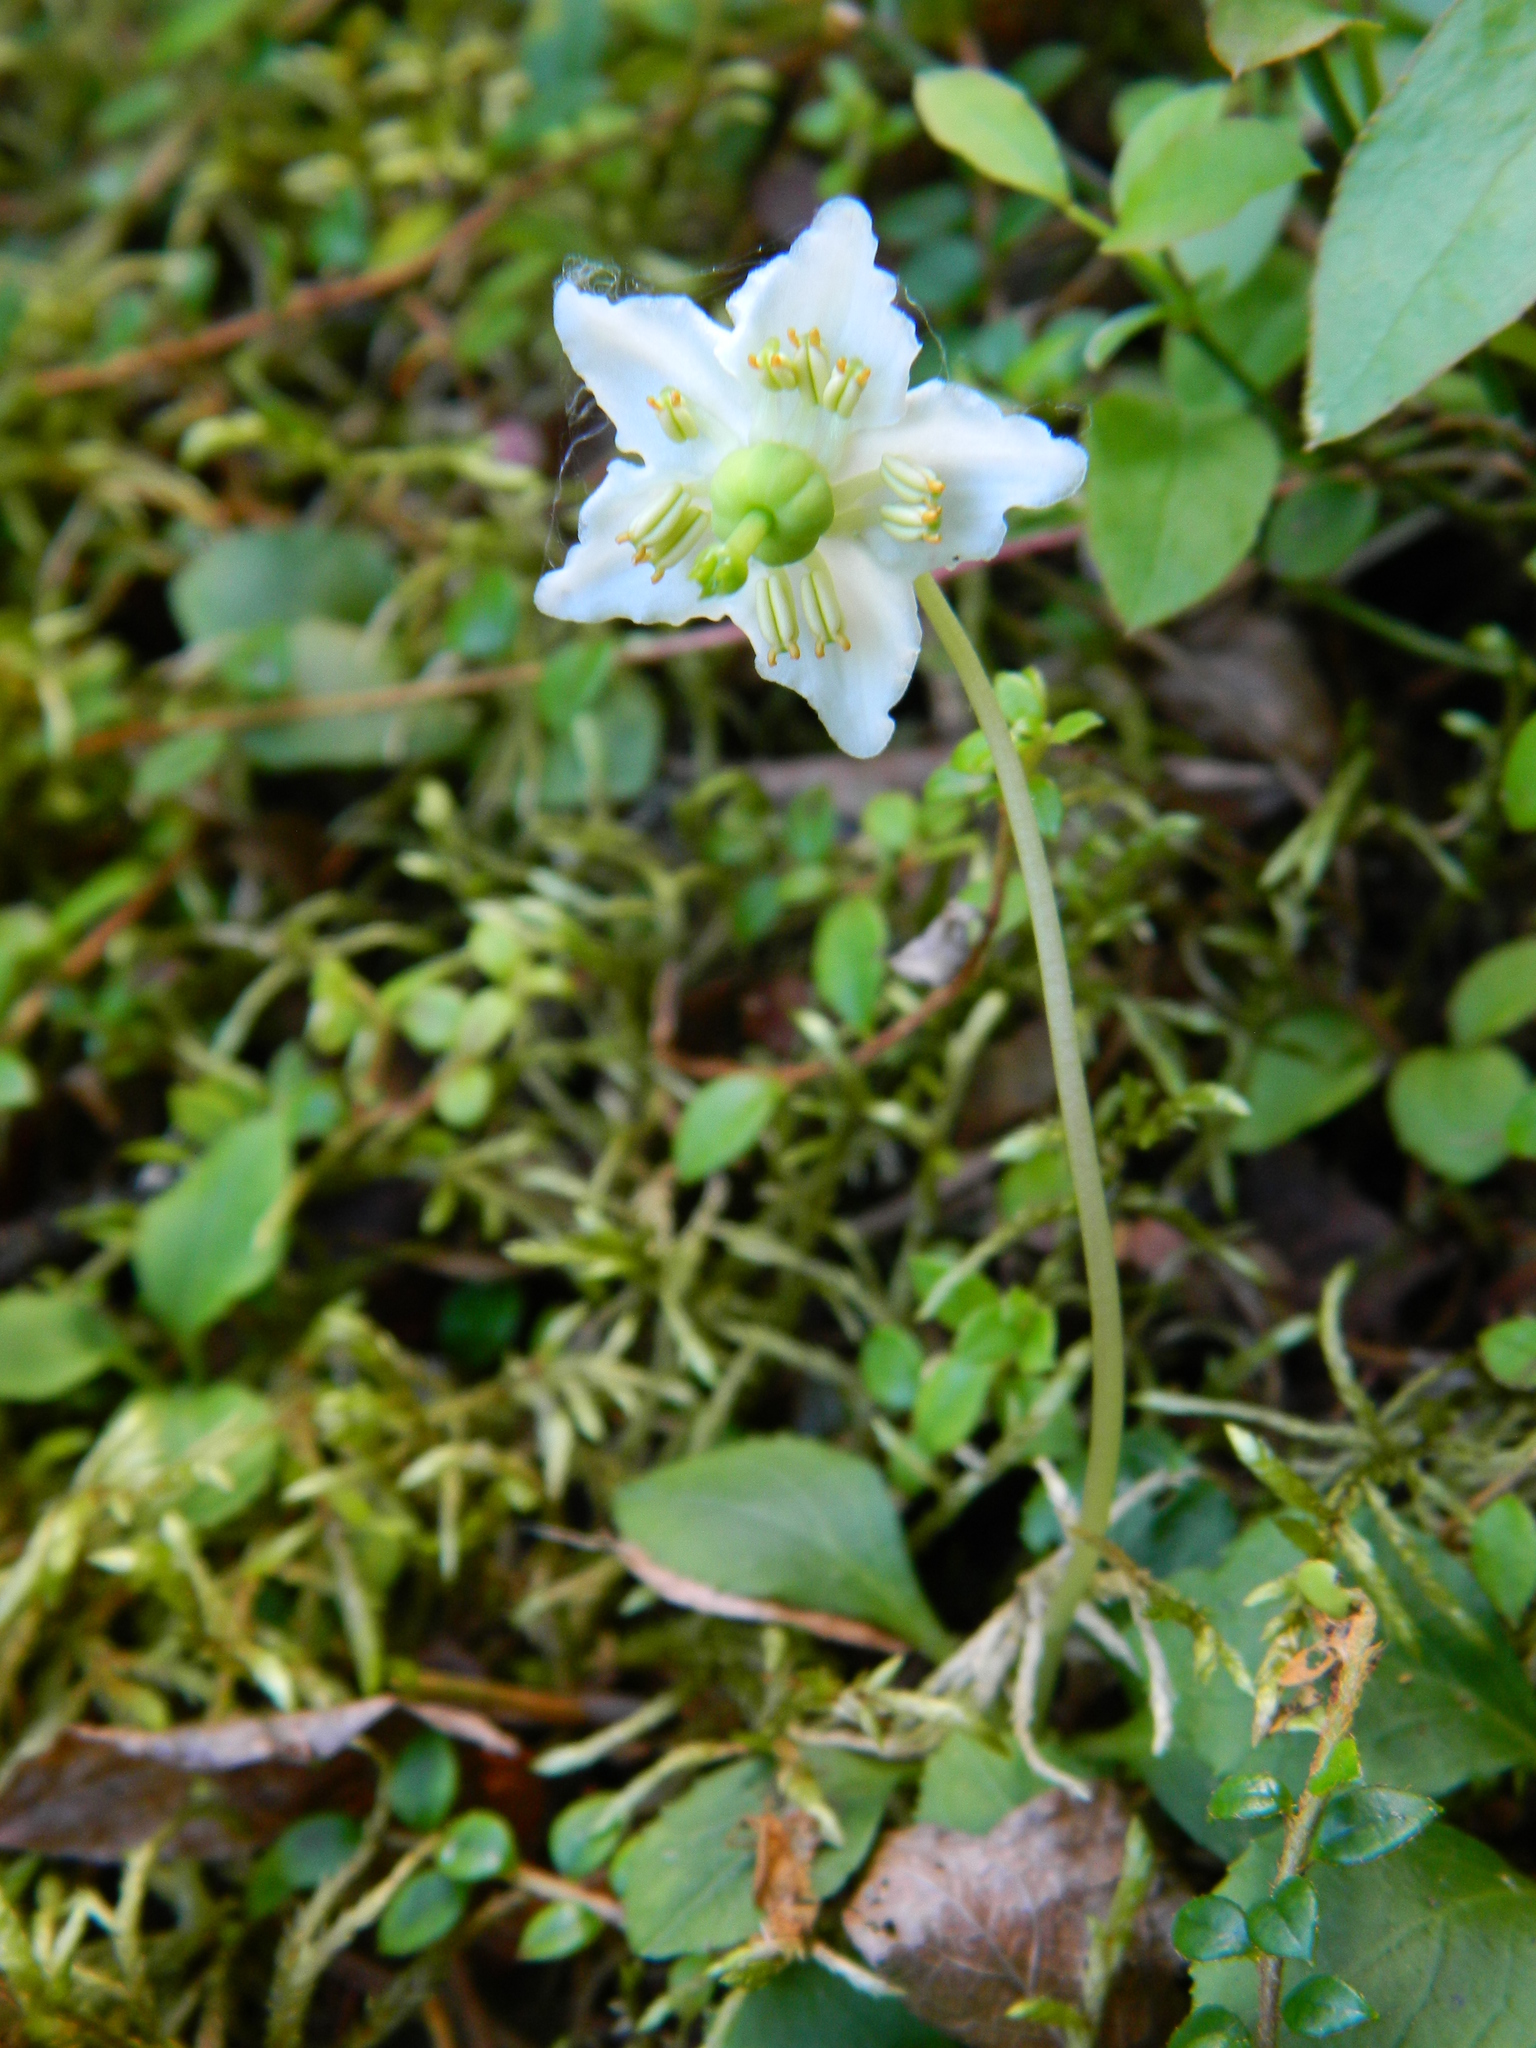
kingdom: Plantae
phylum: Tracheophyta
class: Magnoliopsida
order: Ericales
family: Ericaceae
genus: Moneses
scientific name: Moneses uniflora
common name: One-flowered wintergreen
